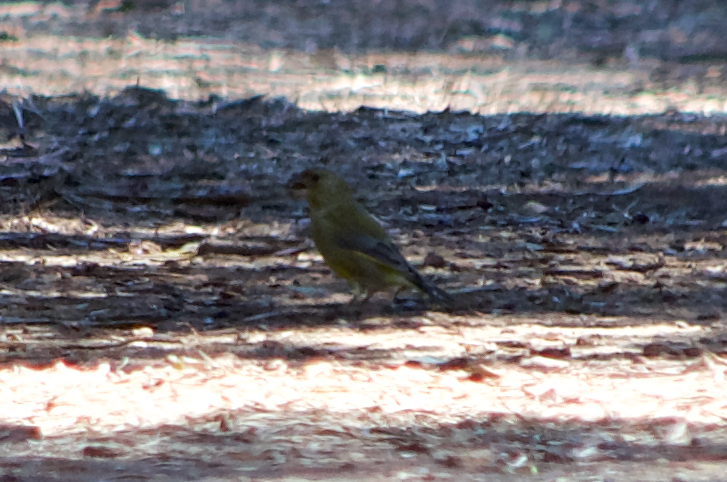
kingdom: Plantae
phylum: Tracheophyta
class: Liliopsida
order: Poales
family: Poaceae
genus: Chloris
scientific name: Chloris chloris
